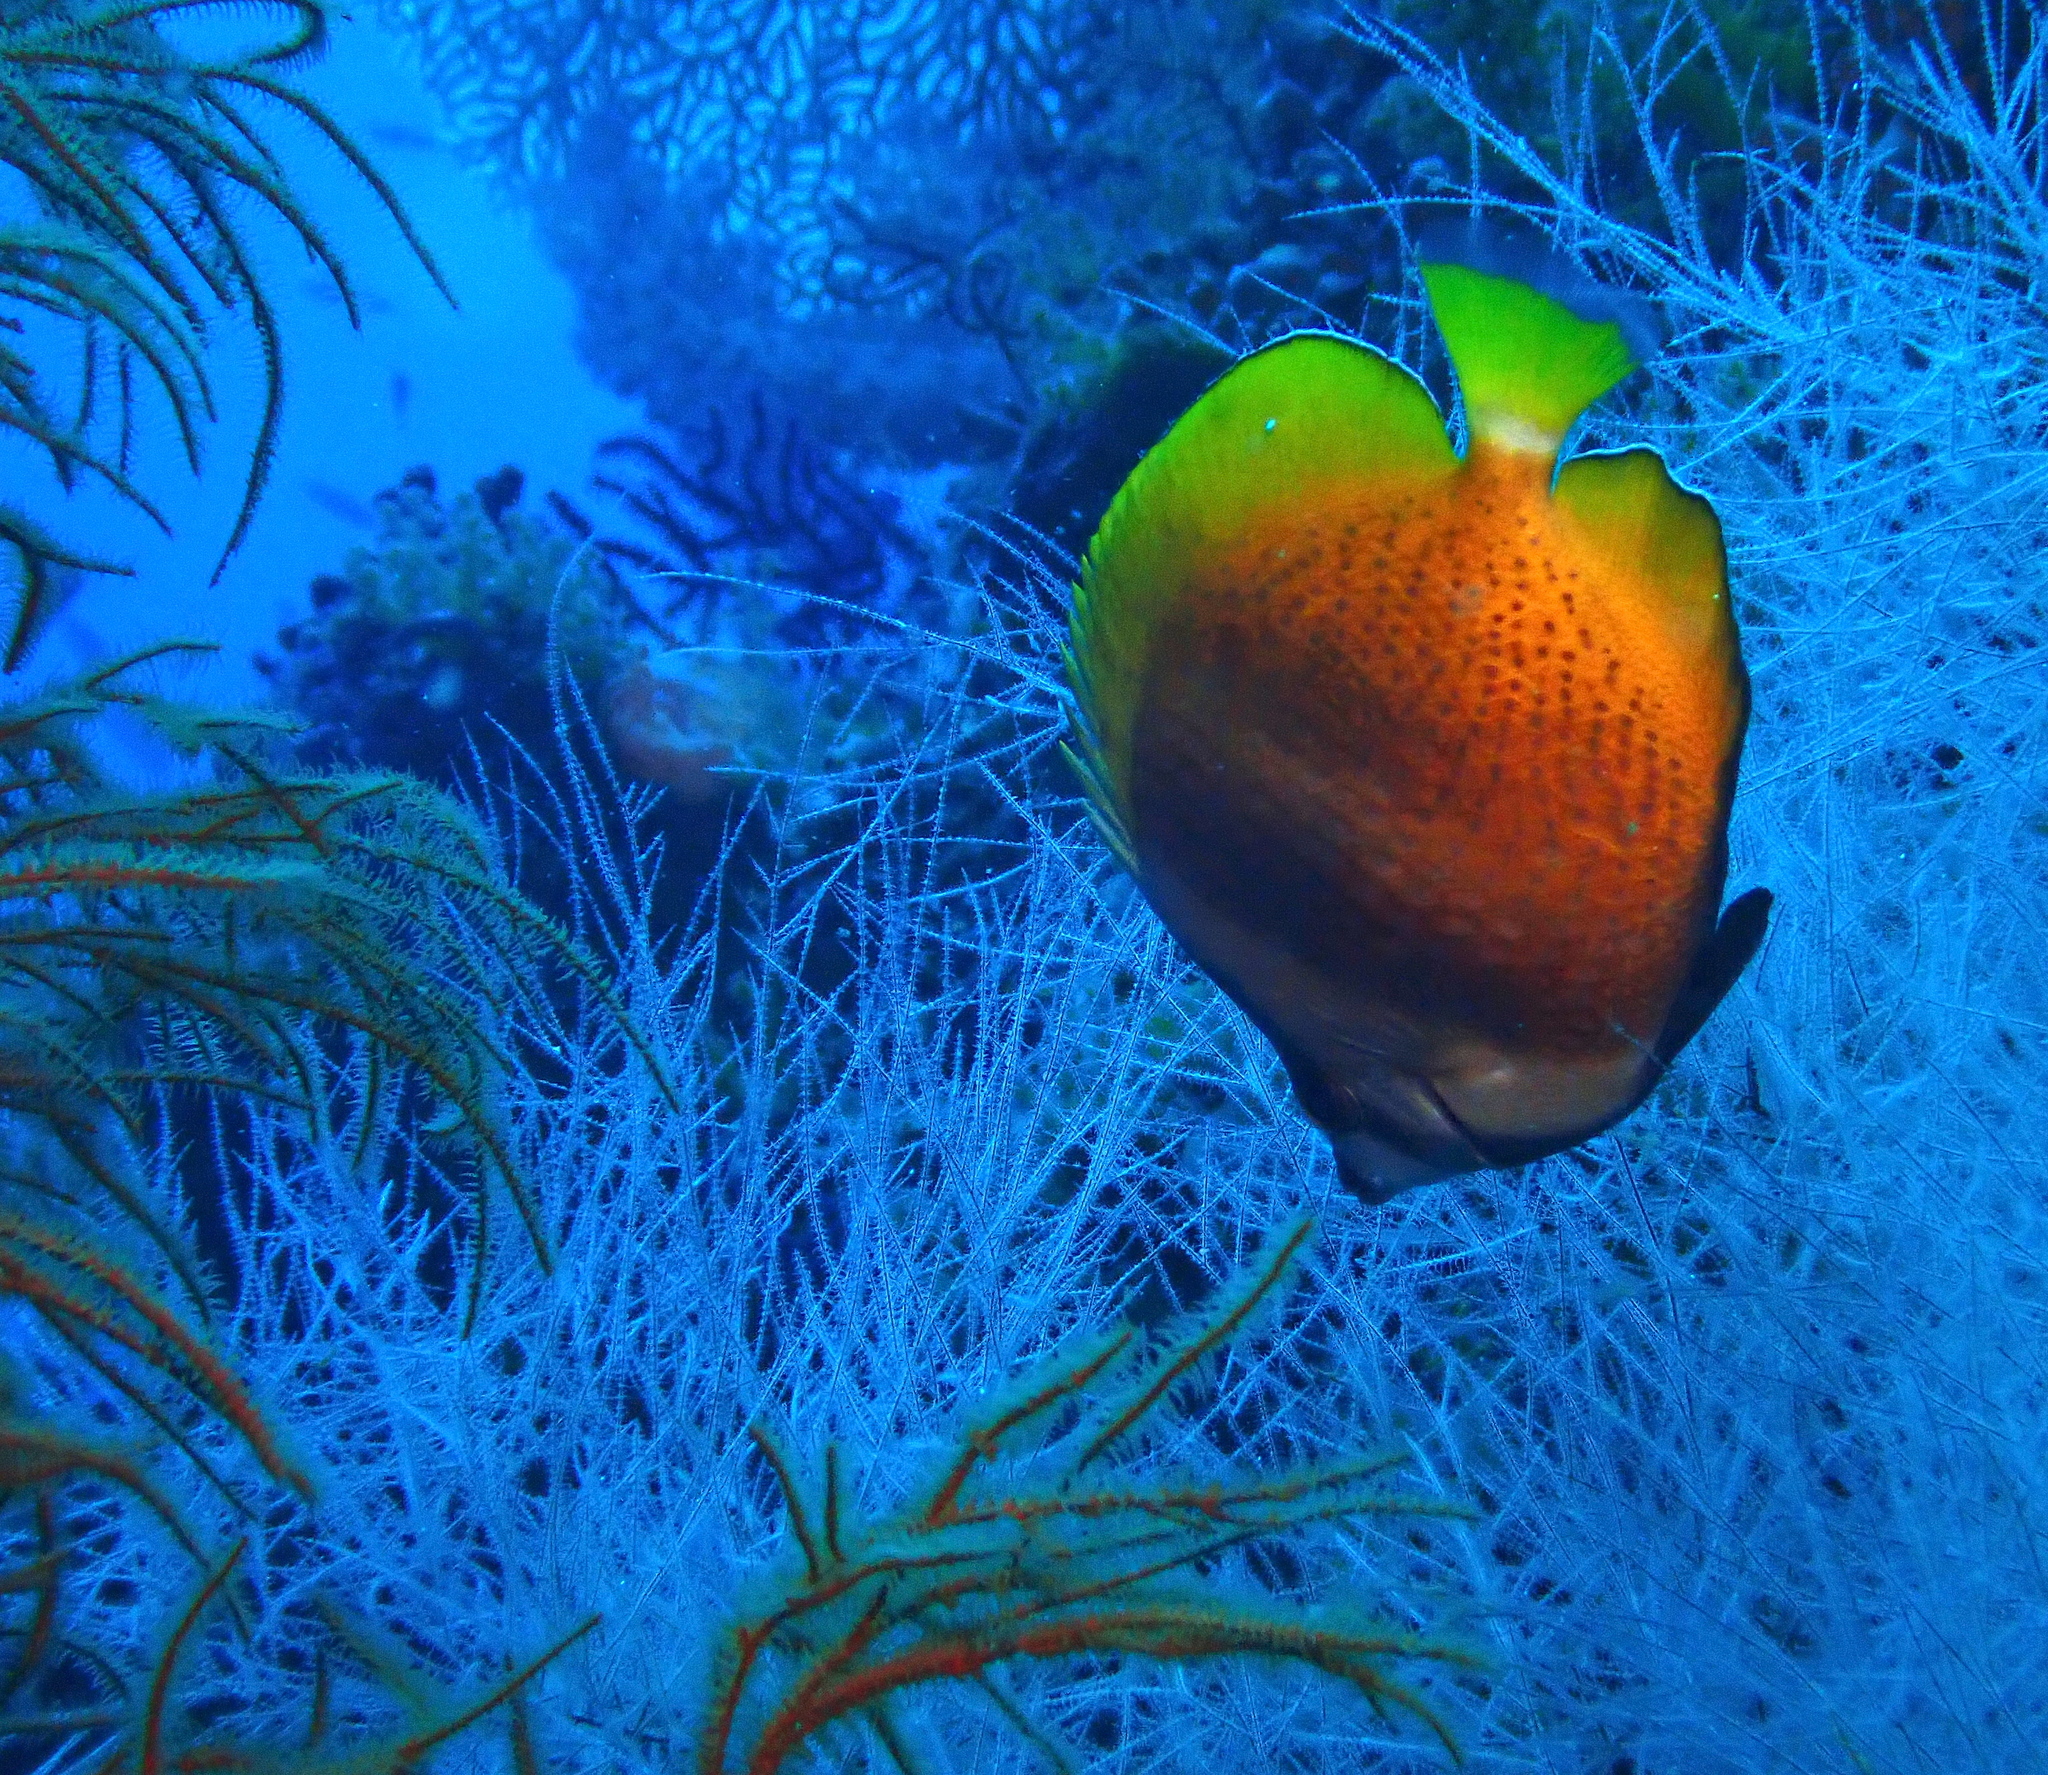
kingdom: Animalia
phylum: Chordata
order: Perciformes
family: Chaetodontidae
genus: Chaetodon
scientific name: Chaetodon kleinii
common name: Klein's butterflyfish
